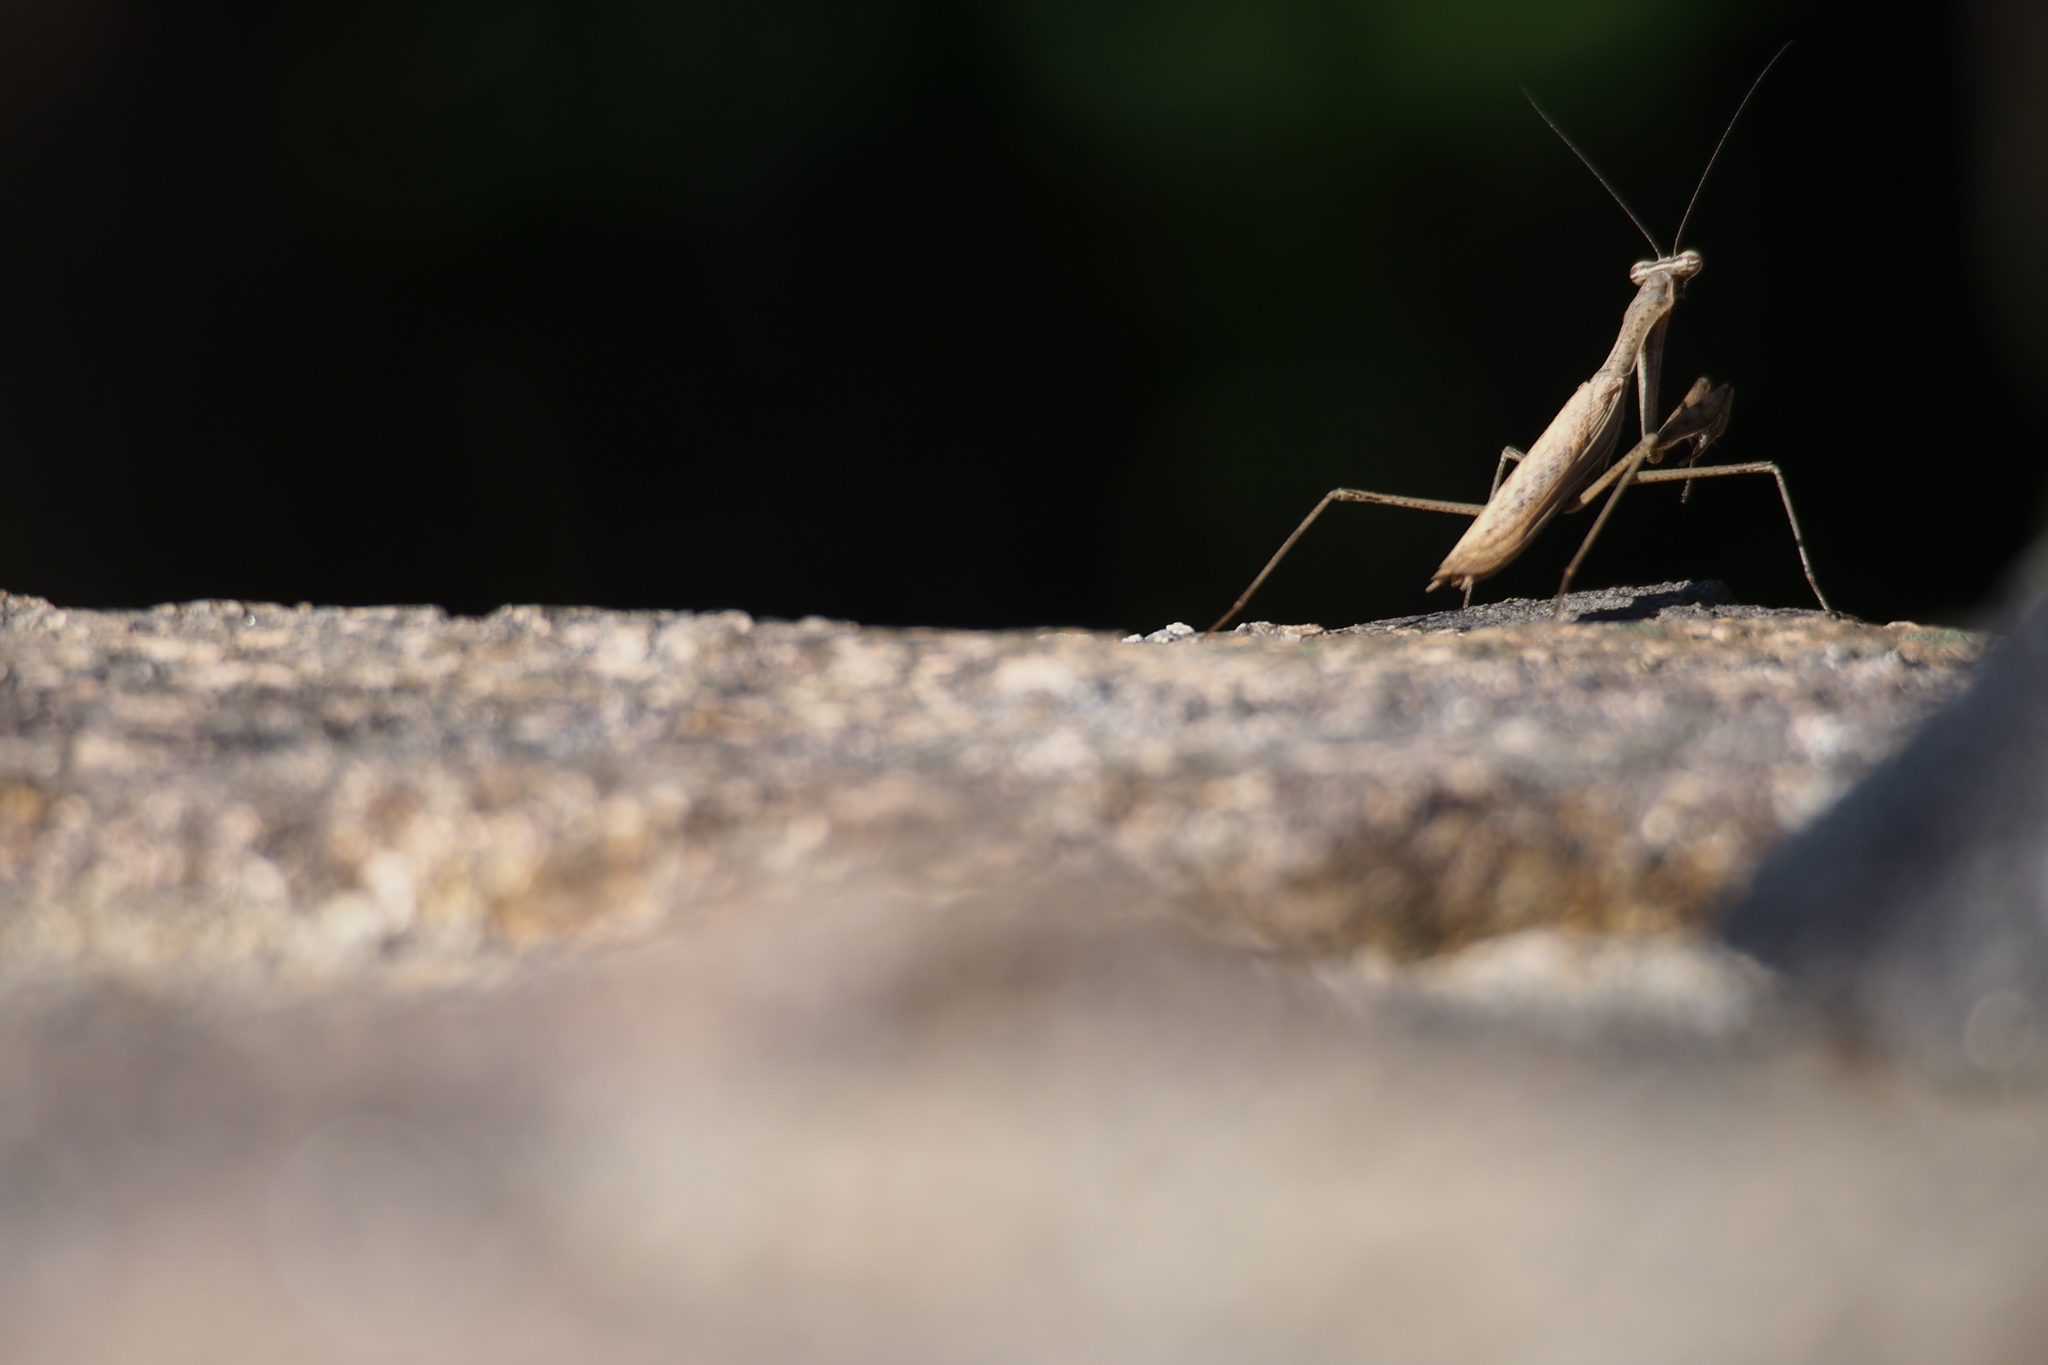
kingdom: Animalia
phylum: Arthropoda
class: Insecta
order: Mantodea
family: Mantidae
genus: Statilia
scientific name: Statilia maculata
